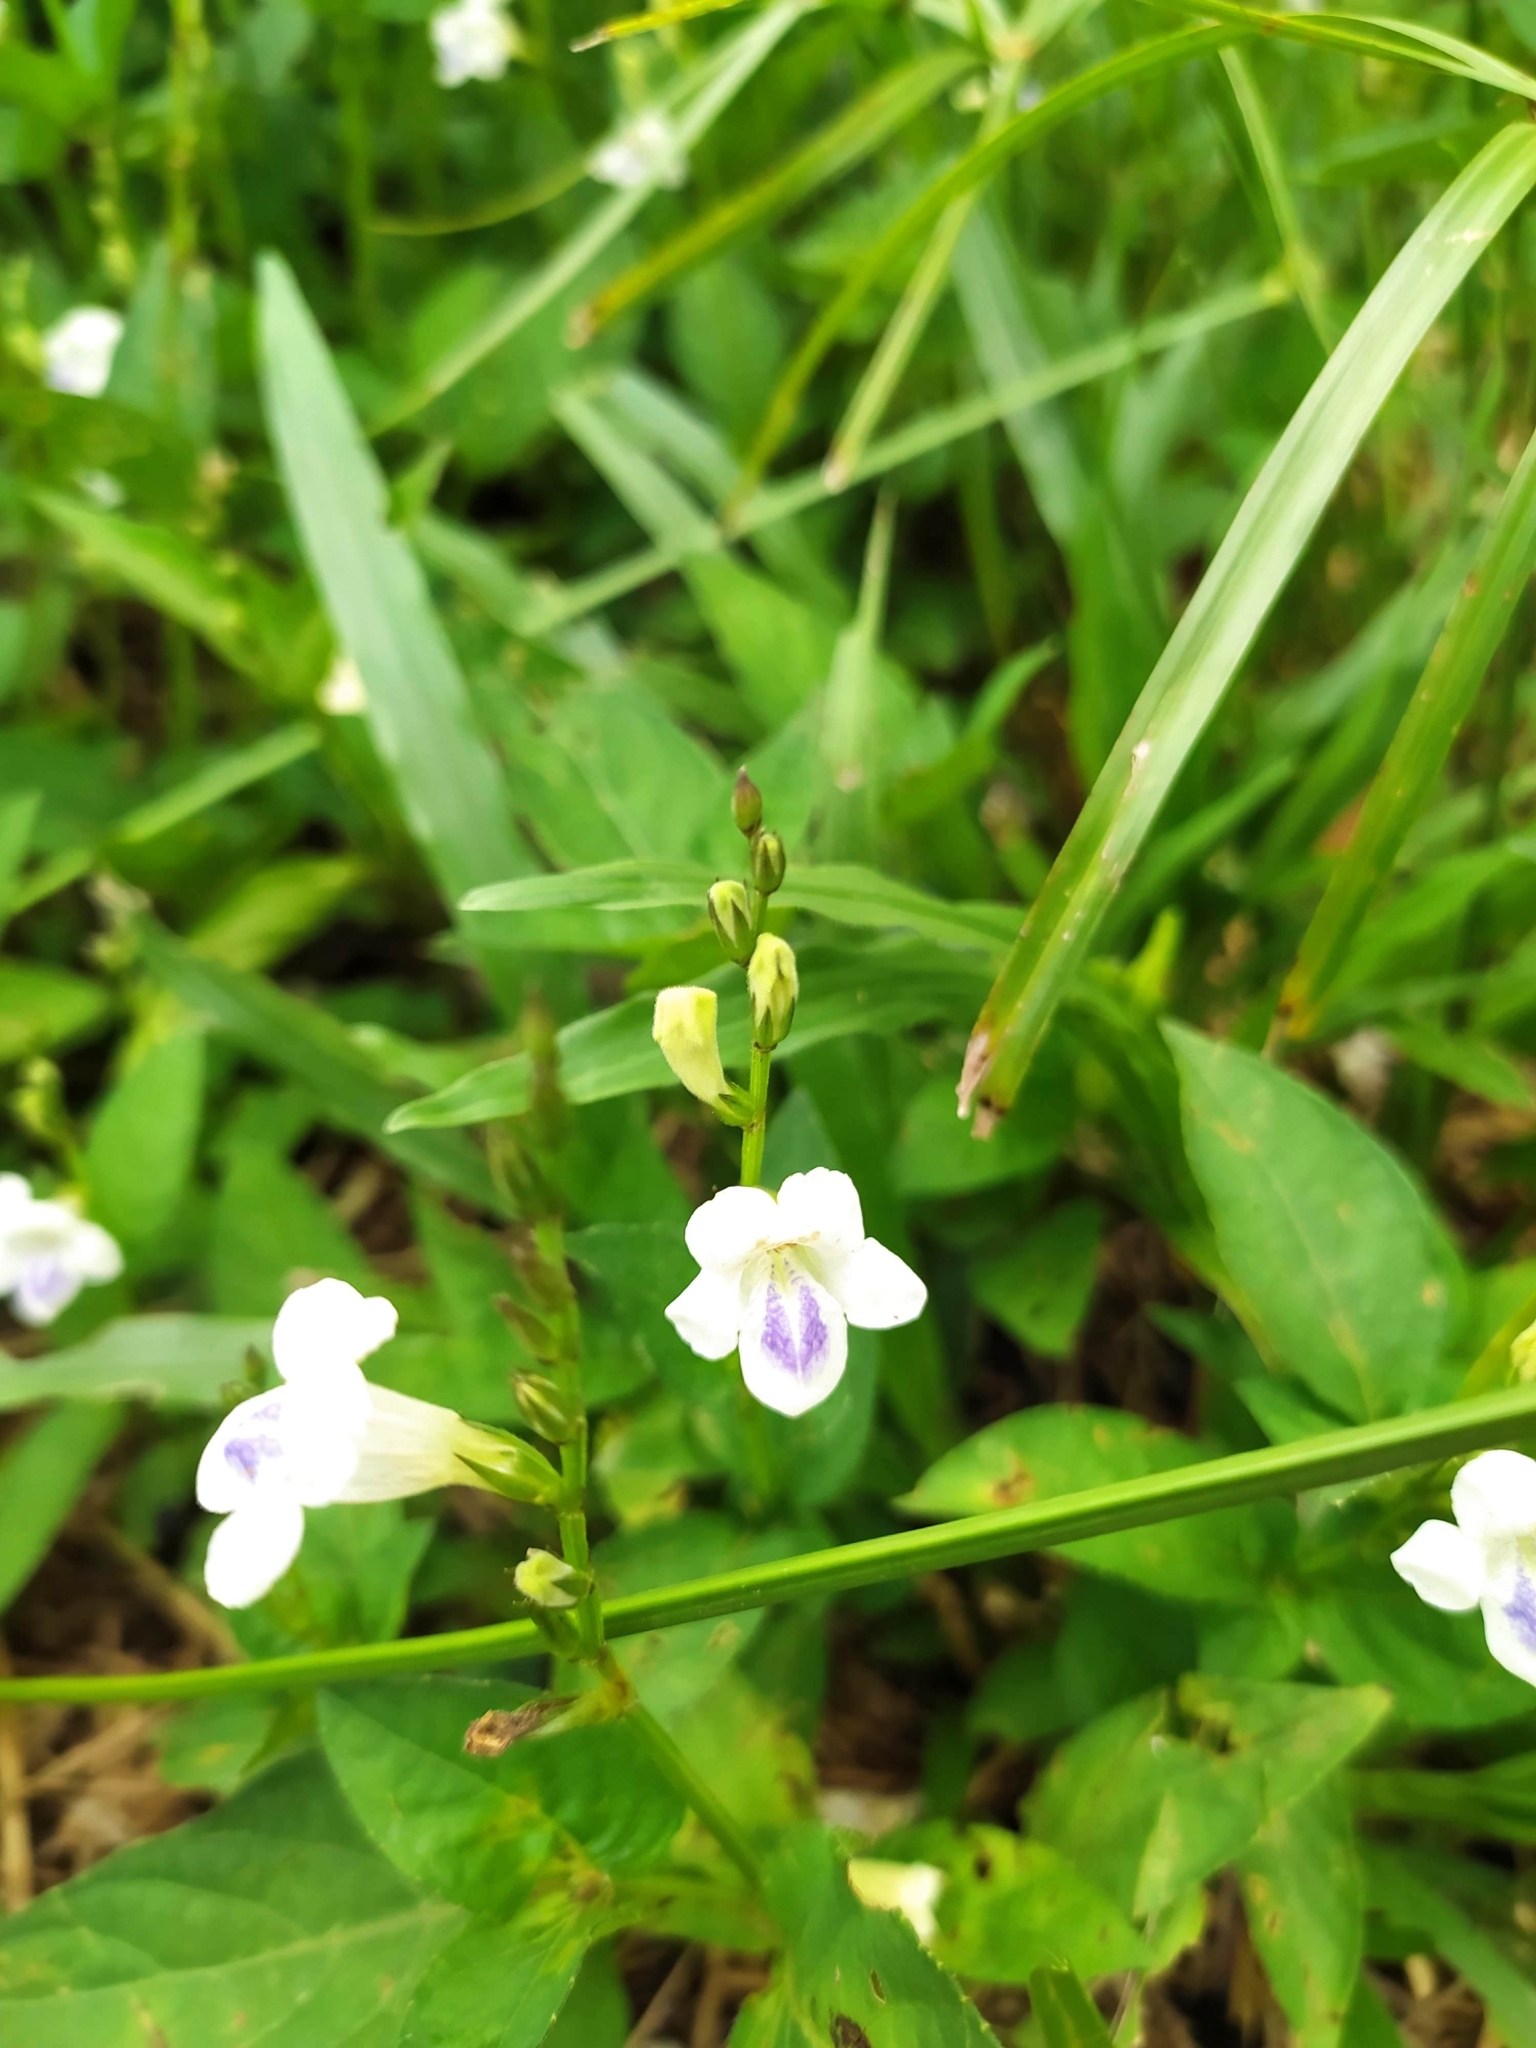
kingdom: Plantae
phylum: Tracheophyta
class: Magnoliopsida
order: Lamiales
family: Acanthaceae
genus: Asystasia
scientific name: Asystasia intrusa
